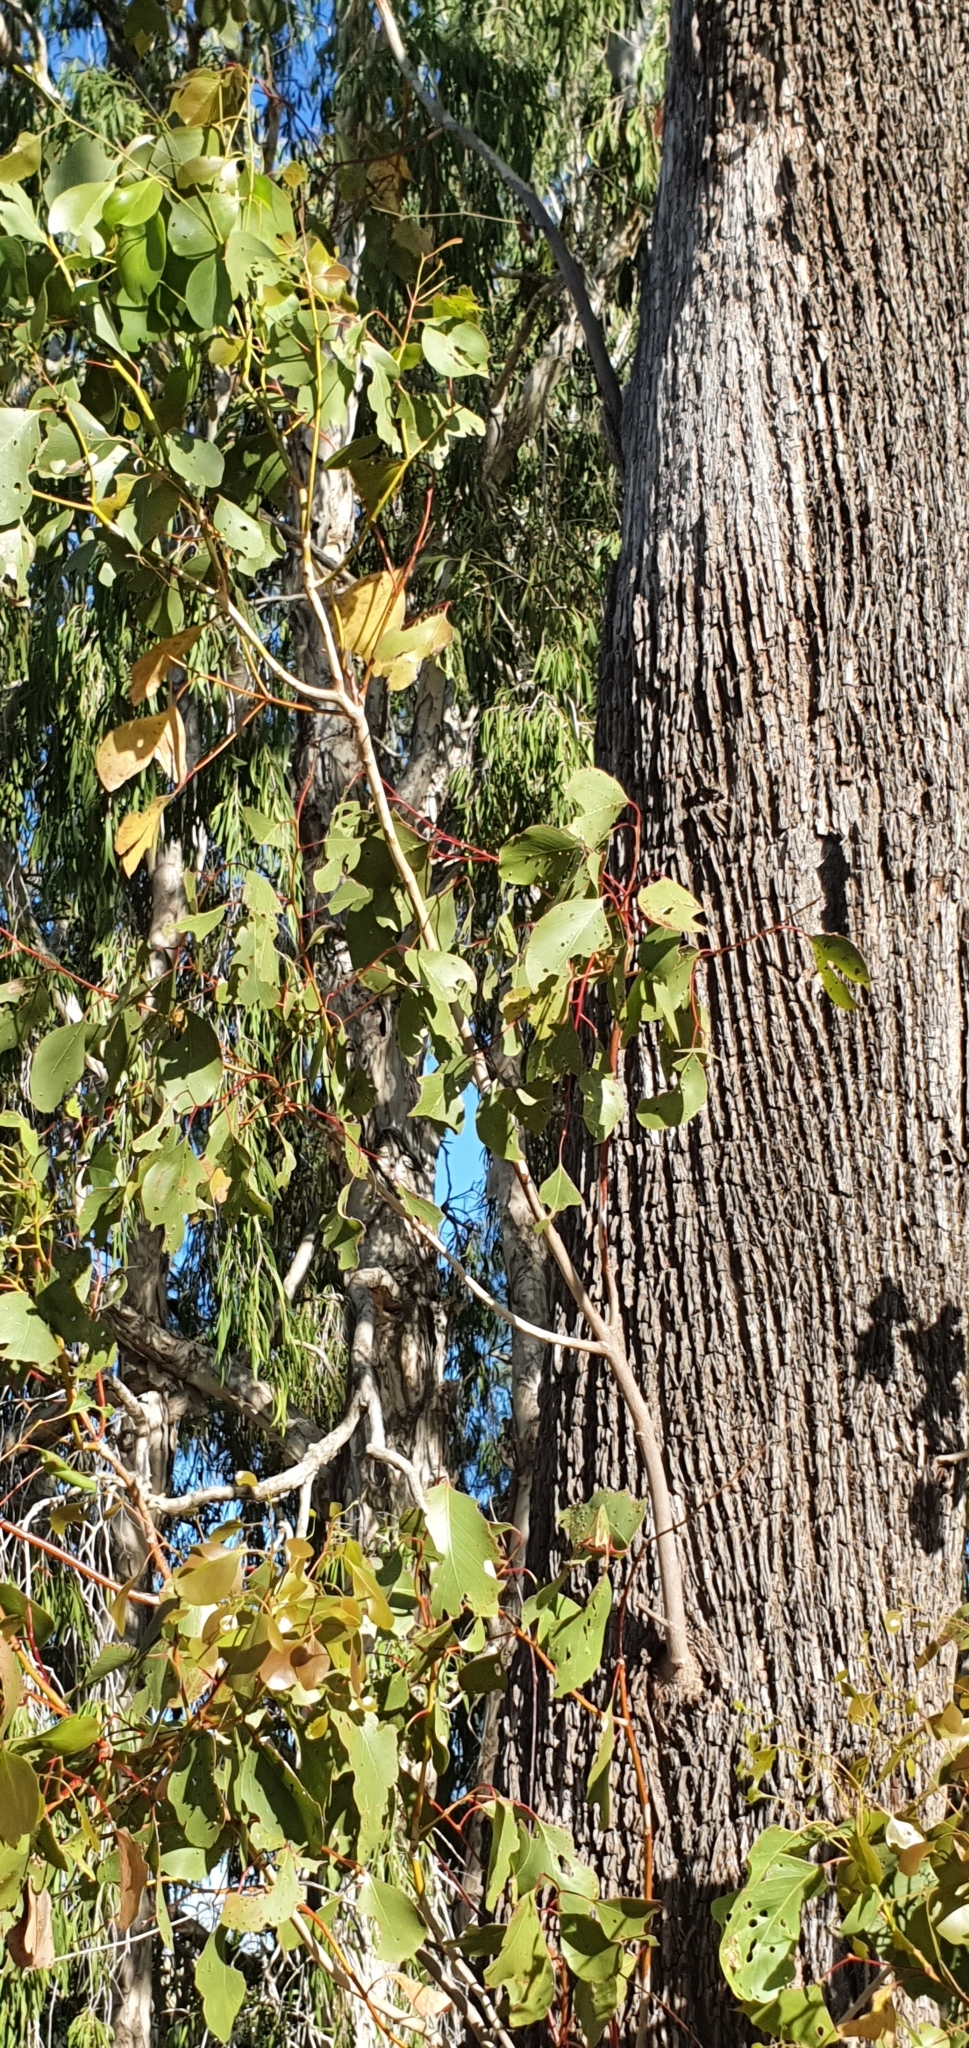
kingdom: Plantae
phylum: Tracheophyta
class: Magnoliopsida
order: Myrtales
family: Myrtaceae
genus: Eucalyptus
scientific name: Eucalyptus populnea
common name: Bimble box
